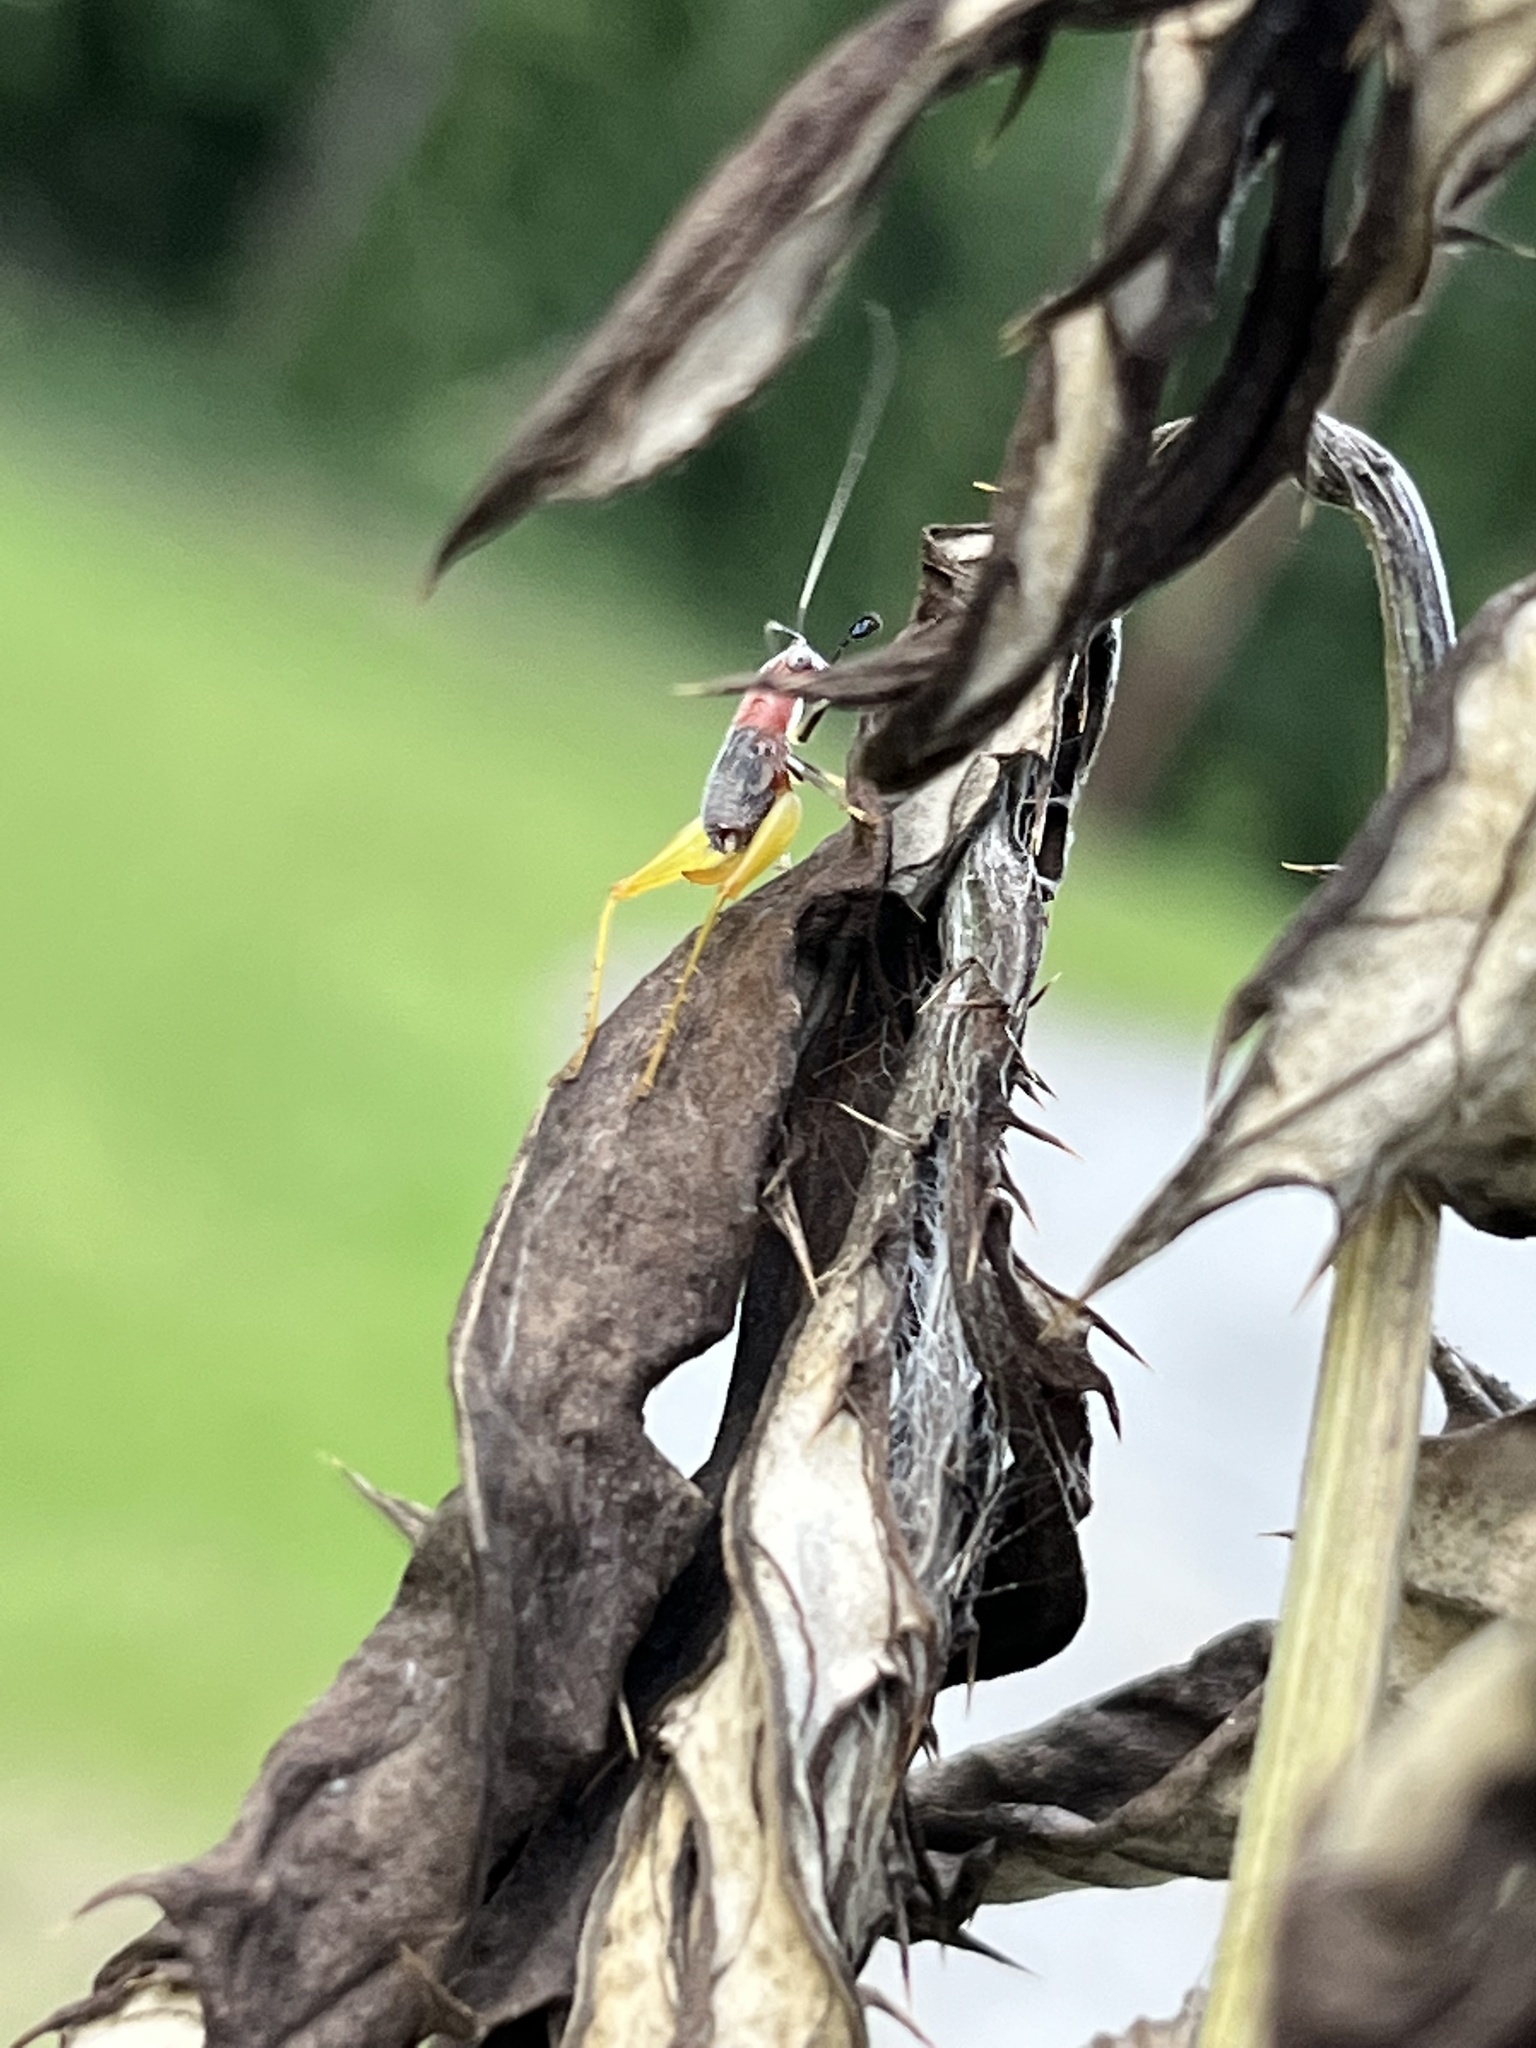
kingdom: Animalia
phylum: Arthropoda
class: Insecta
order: Orthoptera
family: Trigonidiidae
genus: Phyllopalpus
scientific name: Phyllopalpus pulchellus
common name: Handsome trig
